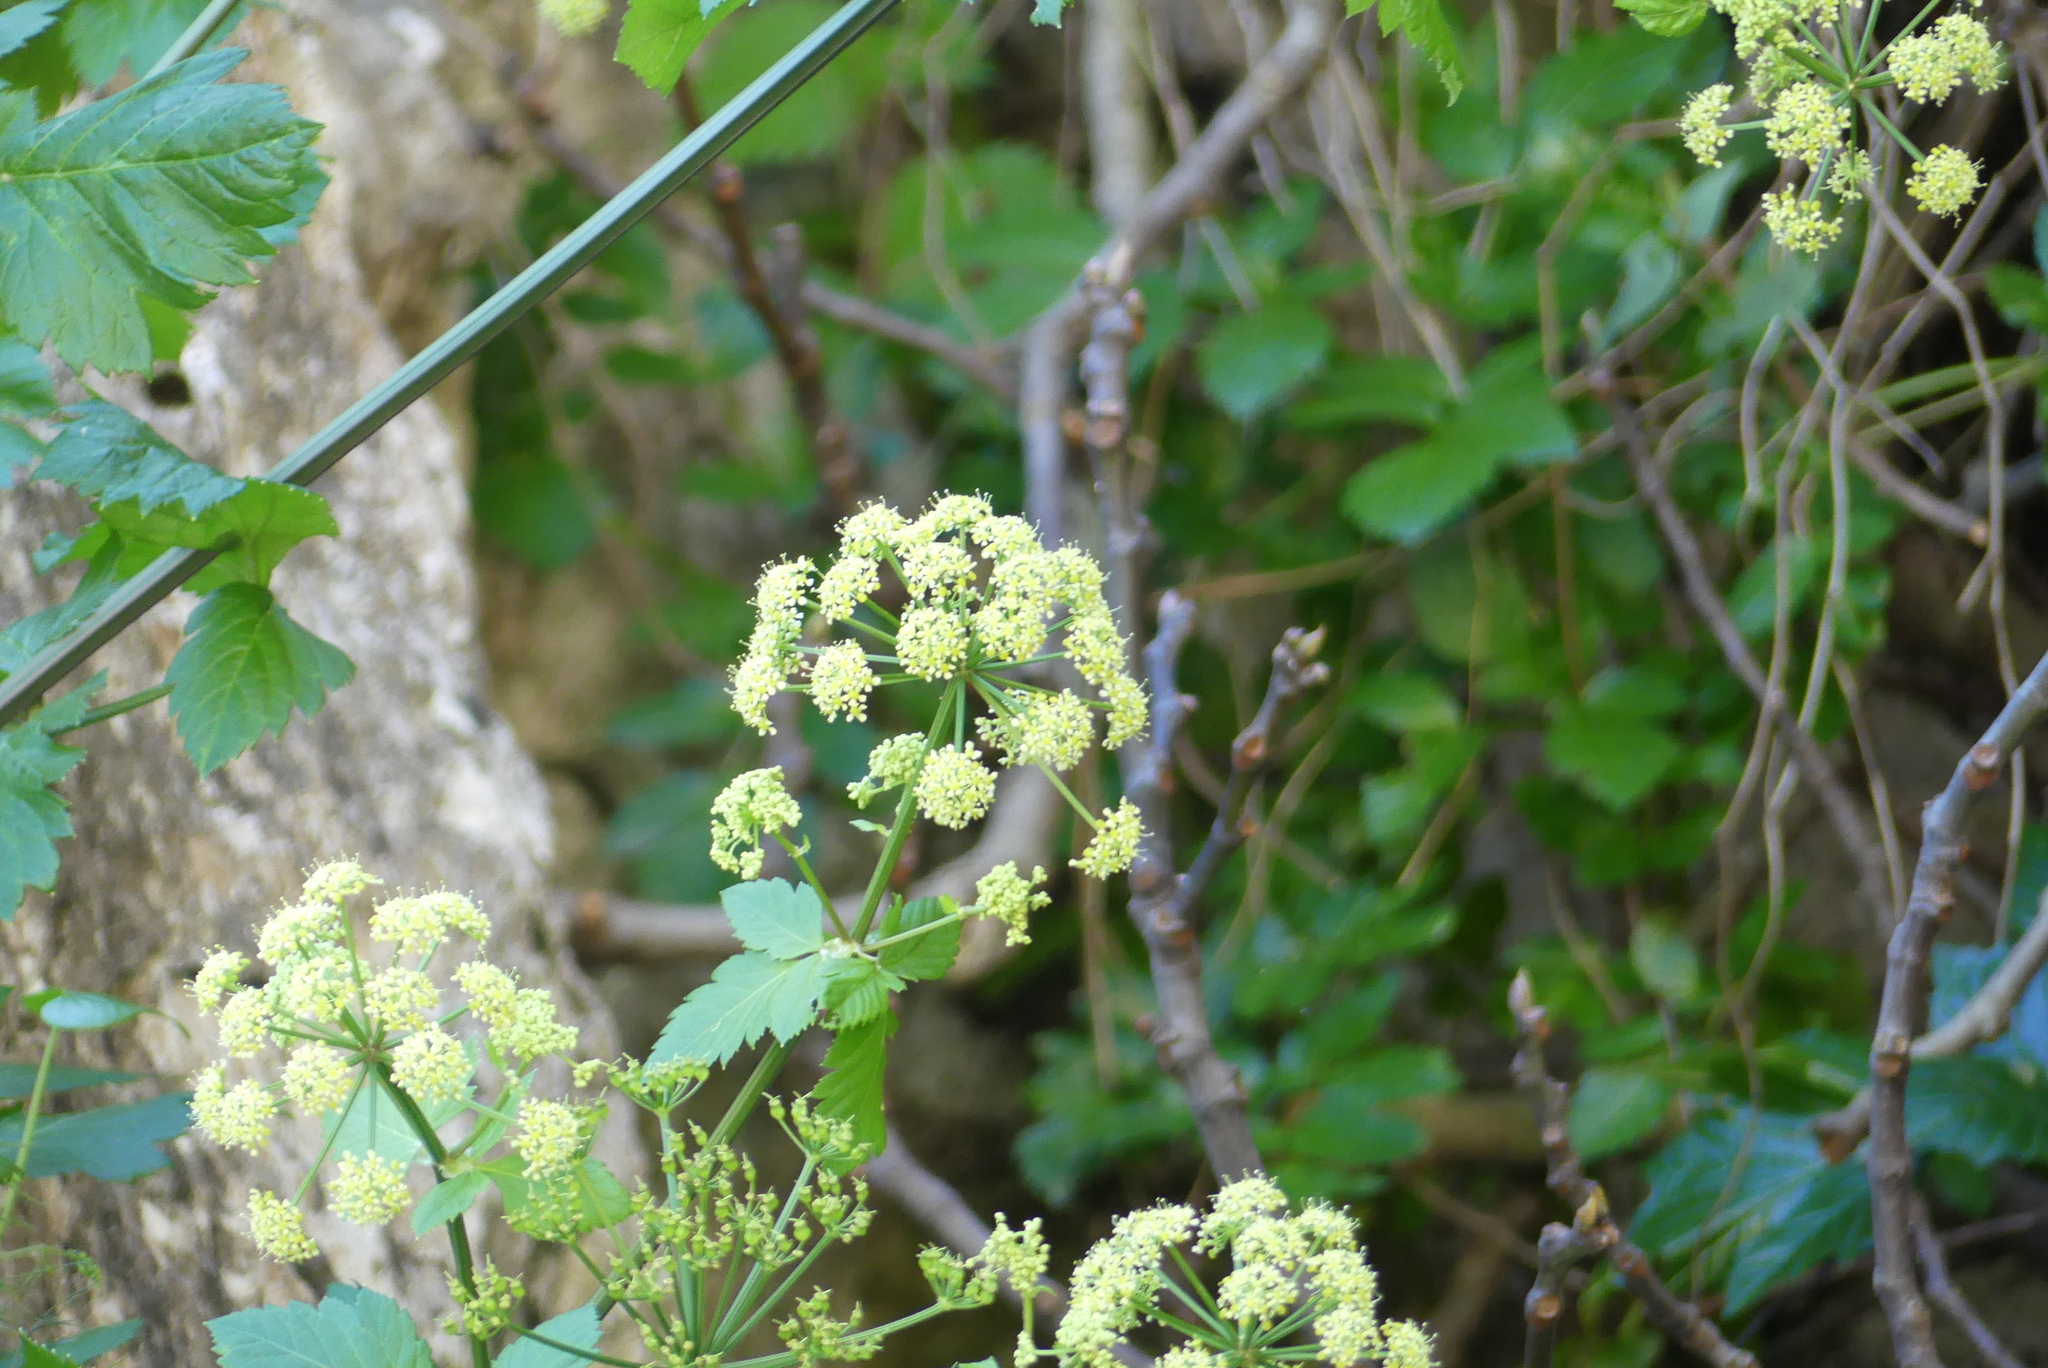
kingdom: Plantae
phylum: Tracheophyta
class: Magnoliopsida
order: Apiales
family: Apiaceae
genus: Smyrnium
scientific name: Smyrnium olusatrum
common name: Alexanders
